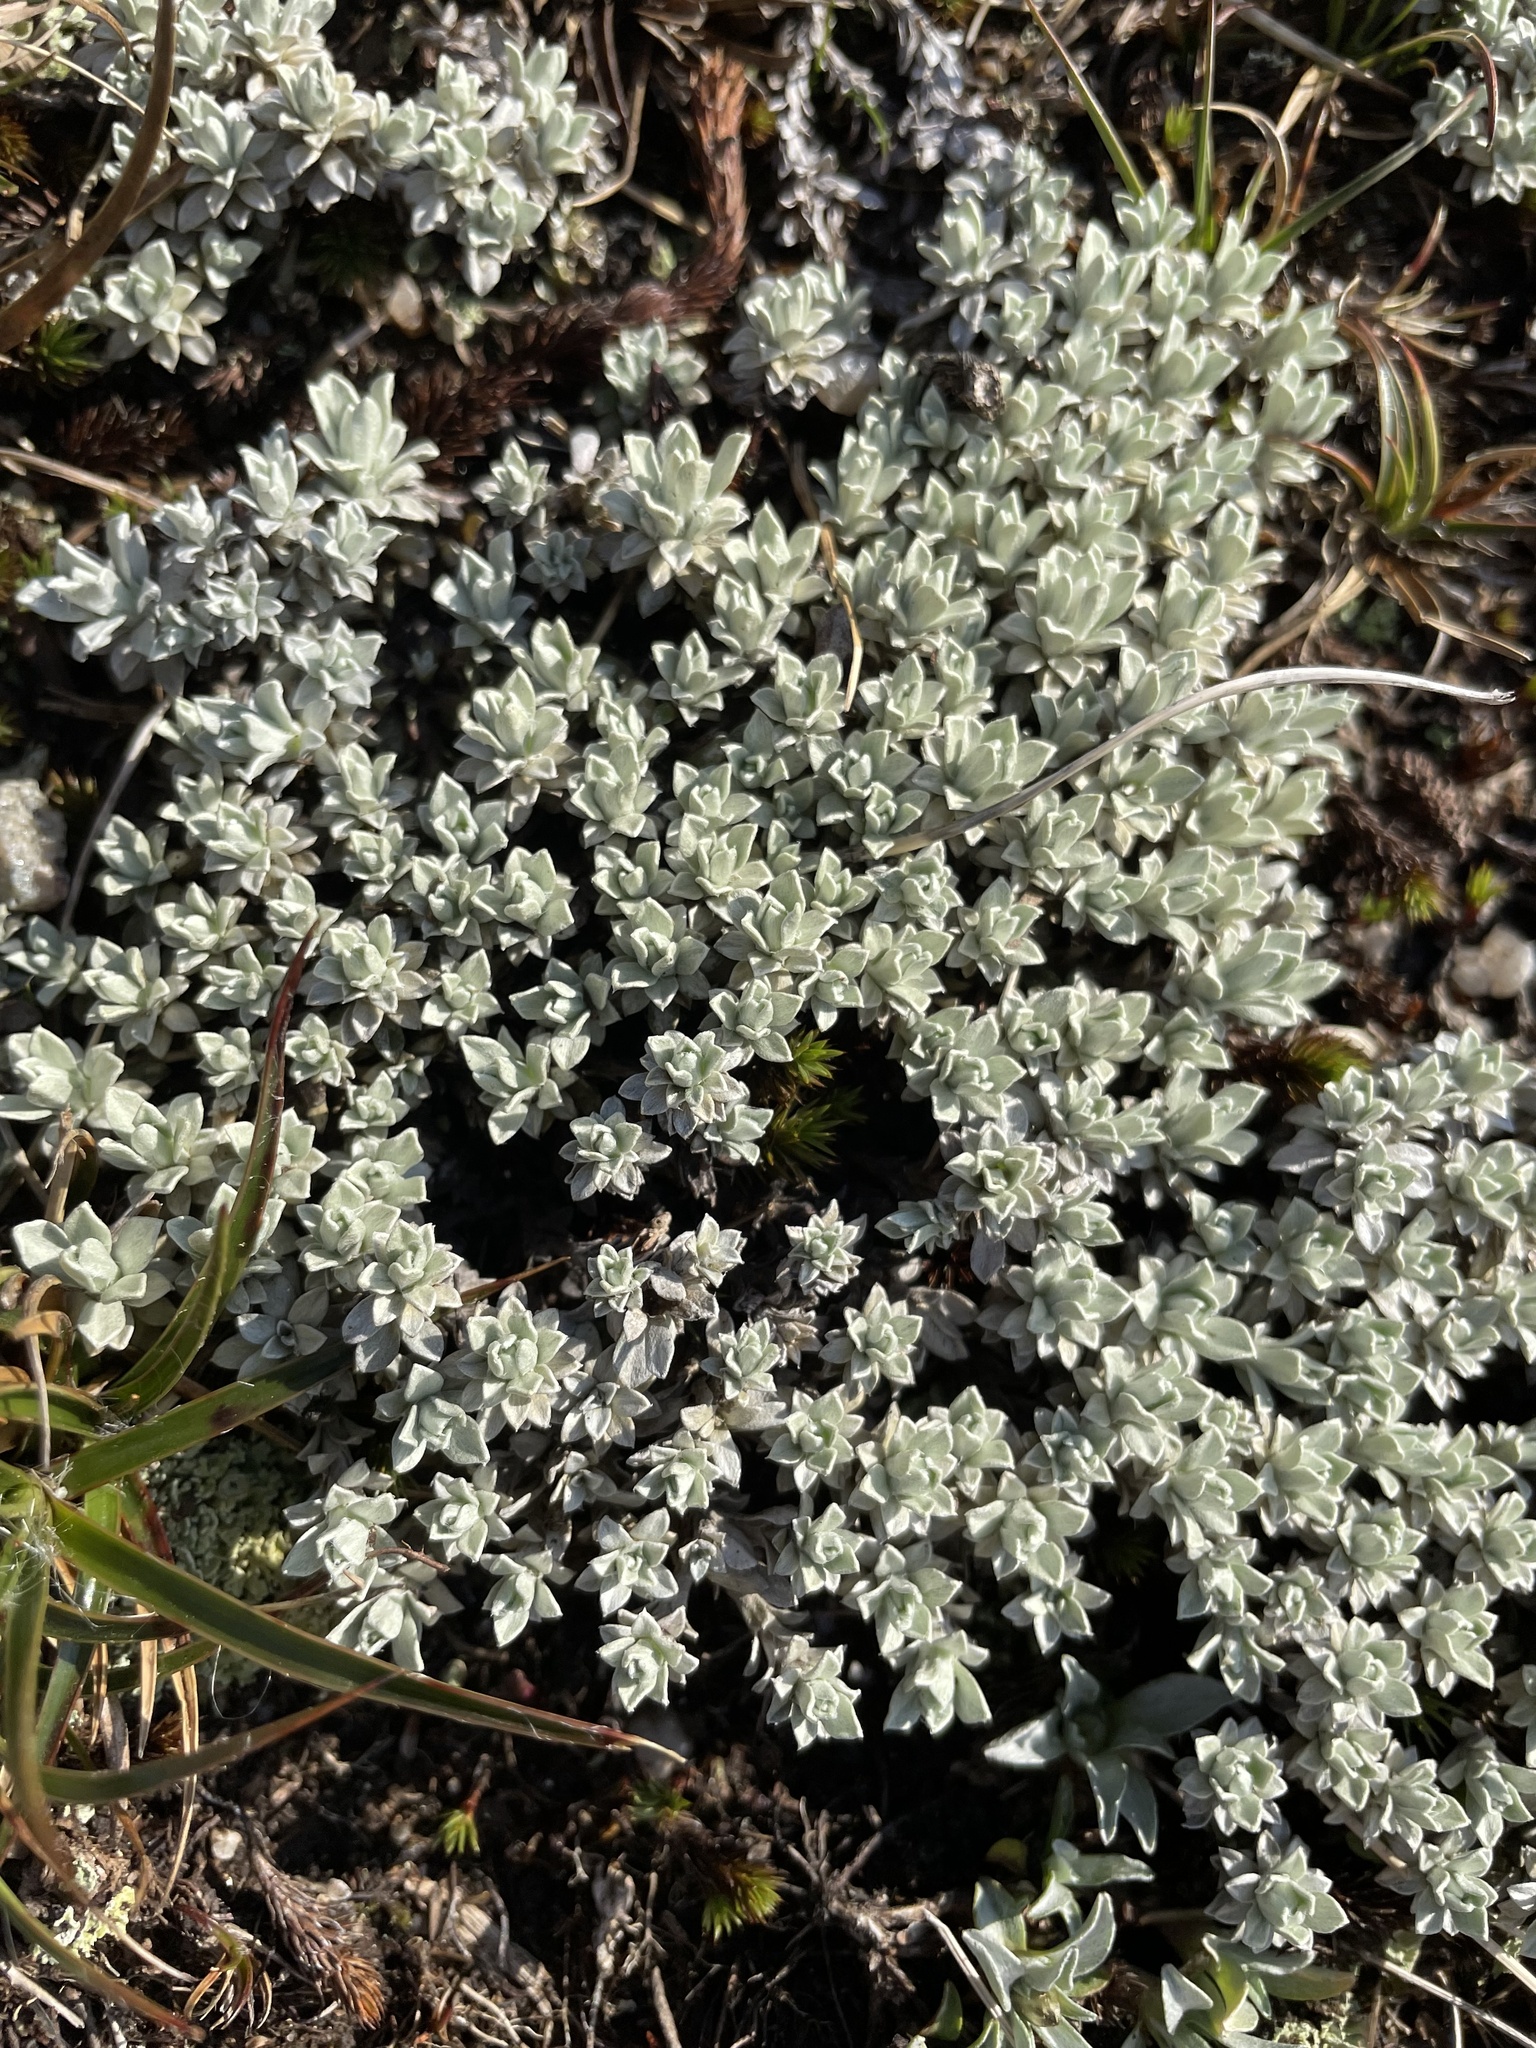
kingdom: Plantae
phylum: Tracheophyta
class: Magnoliopsida
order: Asterales
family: Asteraceae
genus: Ewartia
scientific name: Ewartia nubigena
